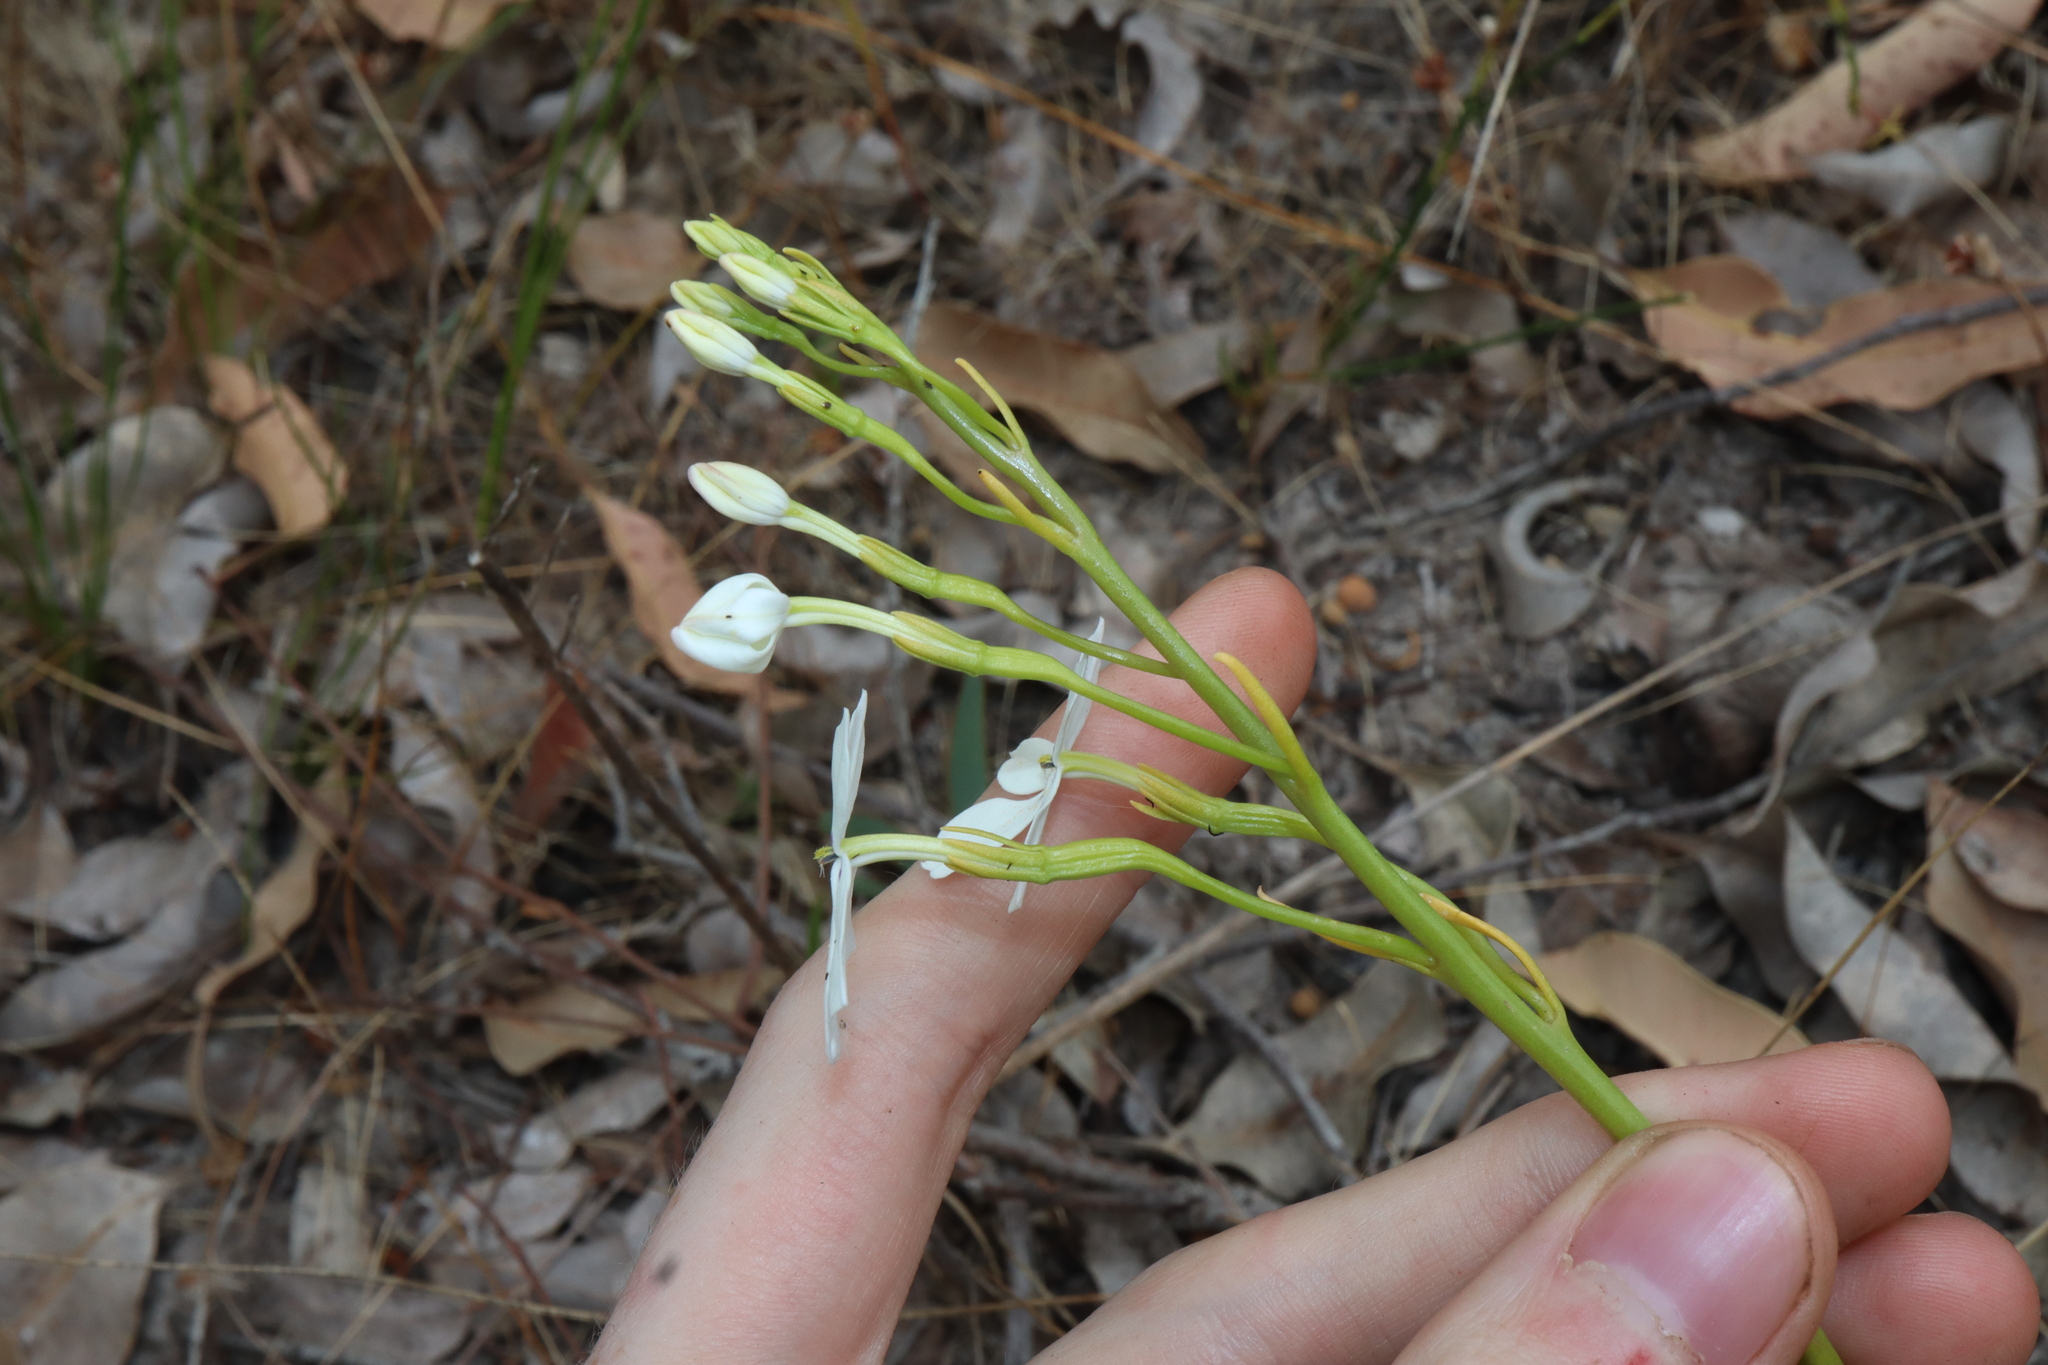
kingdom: Plantae
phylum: Tracheophyta
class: Magnoliopsida
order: Asterales
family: Campanulaceae
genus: Isotoma
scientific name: Isotoma hypocrateriformis
